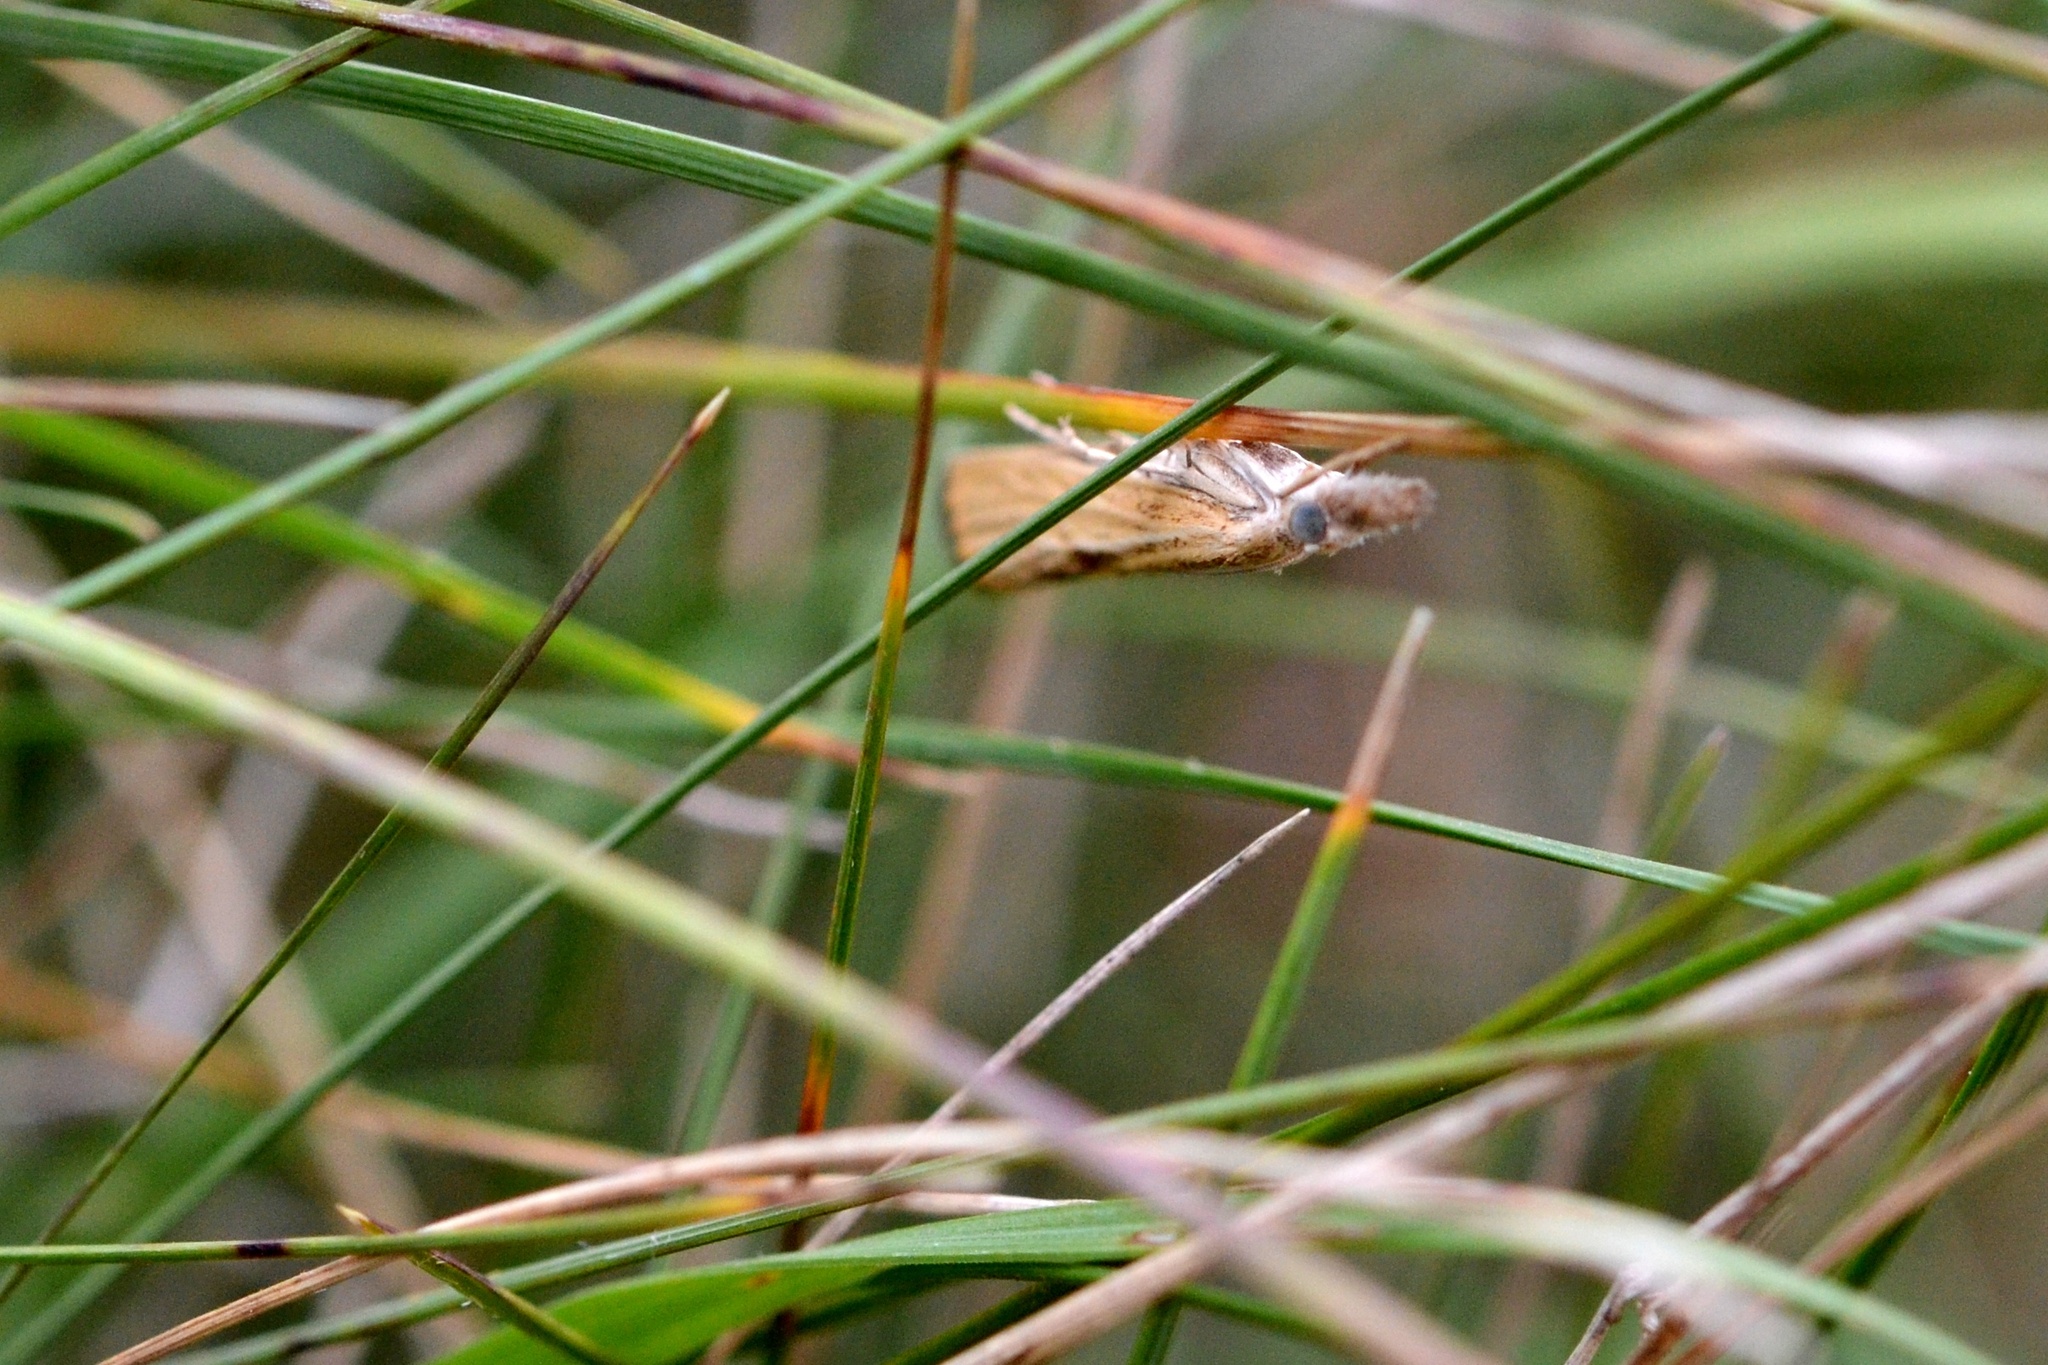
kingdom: Animalia
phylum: Arthropoda
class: Insecta
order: Lepidoptera
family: Crambidae
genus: Agriphila
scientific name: Agriphila inquinatella
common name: Barred grass-veneer
